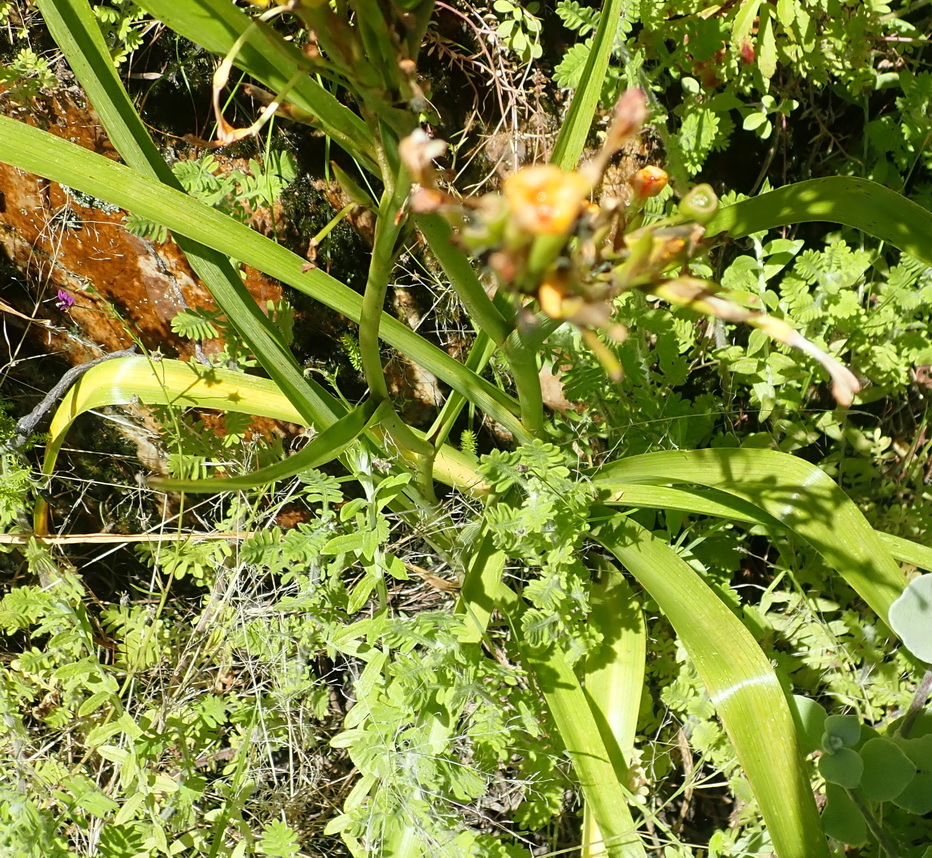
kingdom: Plantae
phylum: Tracheophyta
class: Liliopsida
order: Asparagales
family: Iridaceae
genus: Moraea
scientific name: Moraea ramosissima
